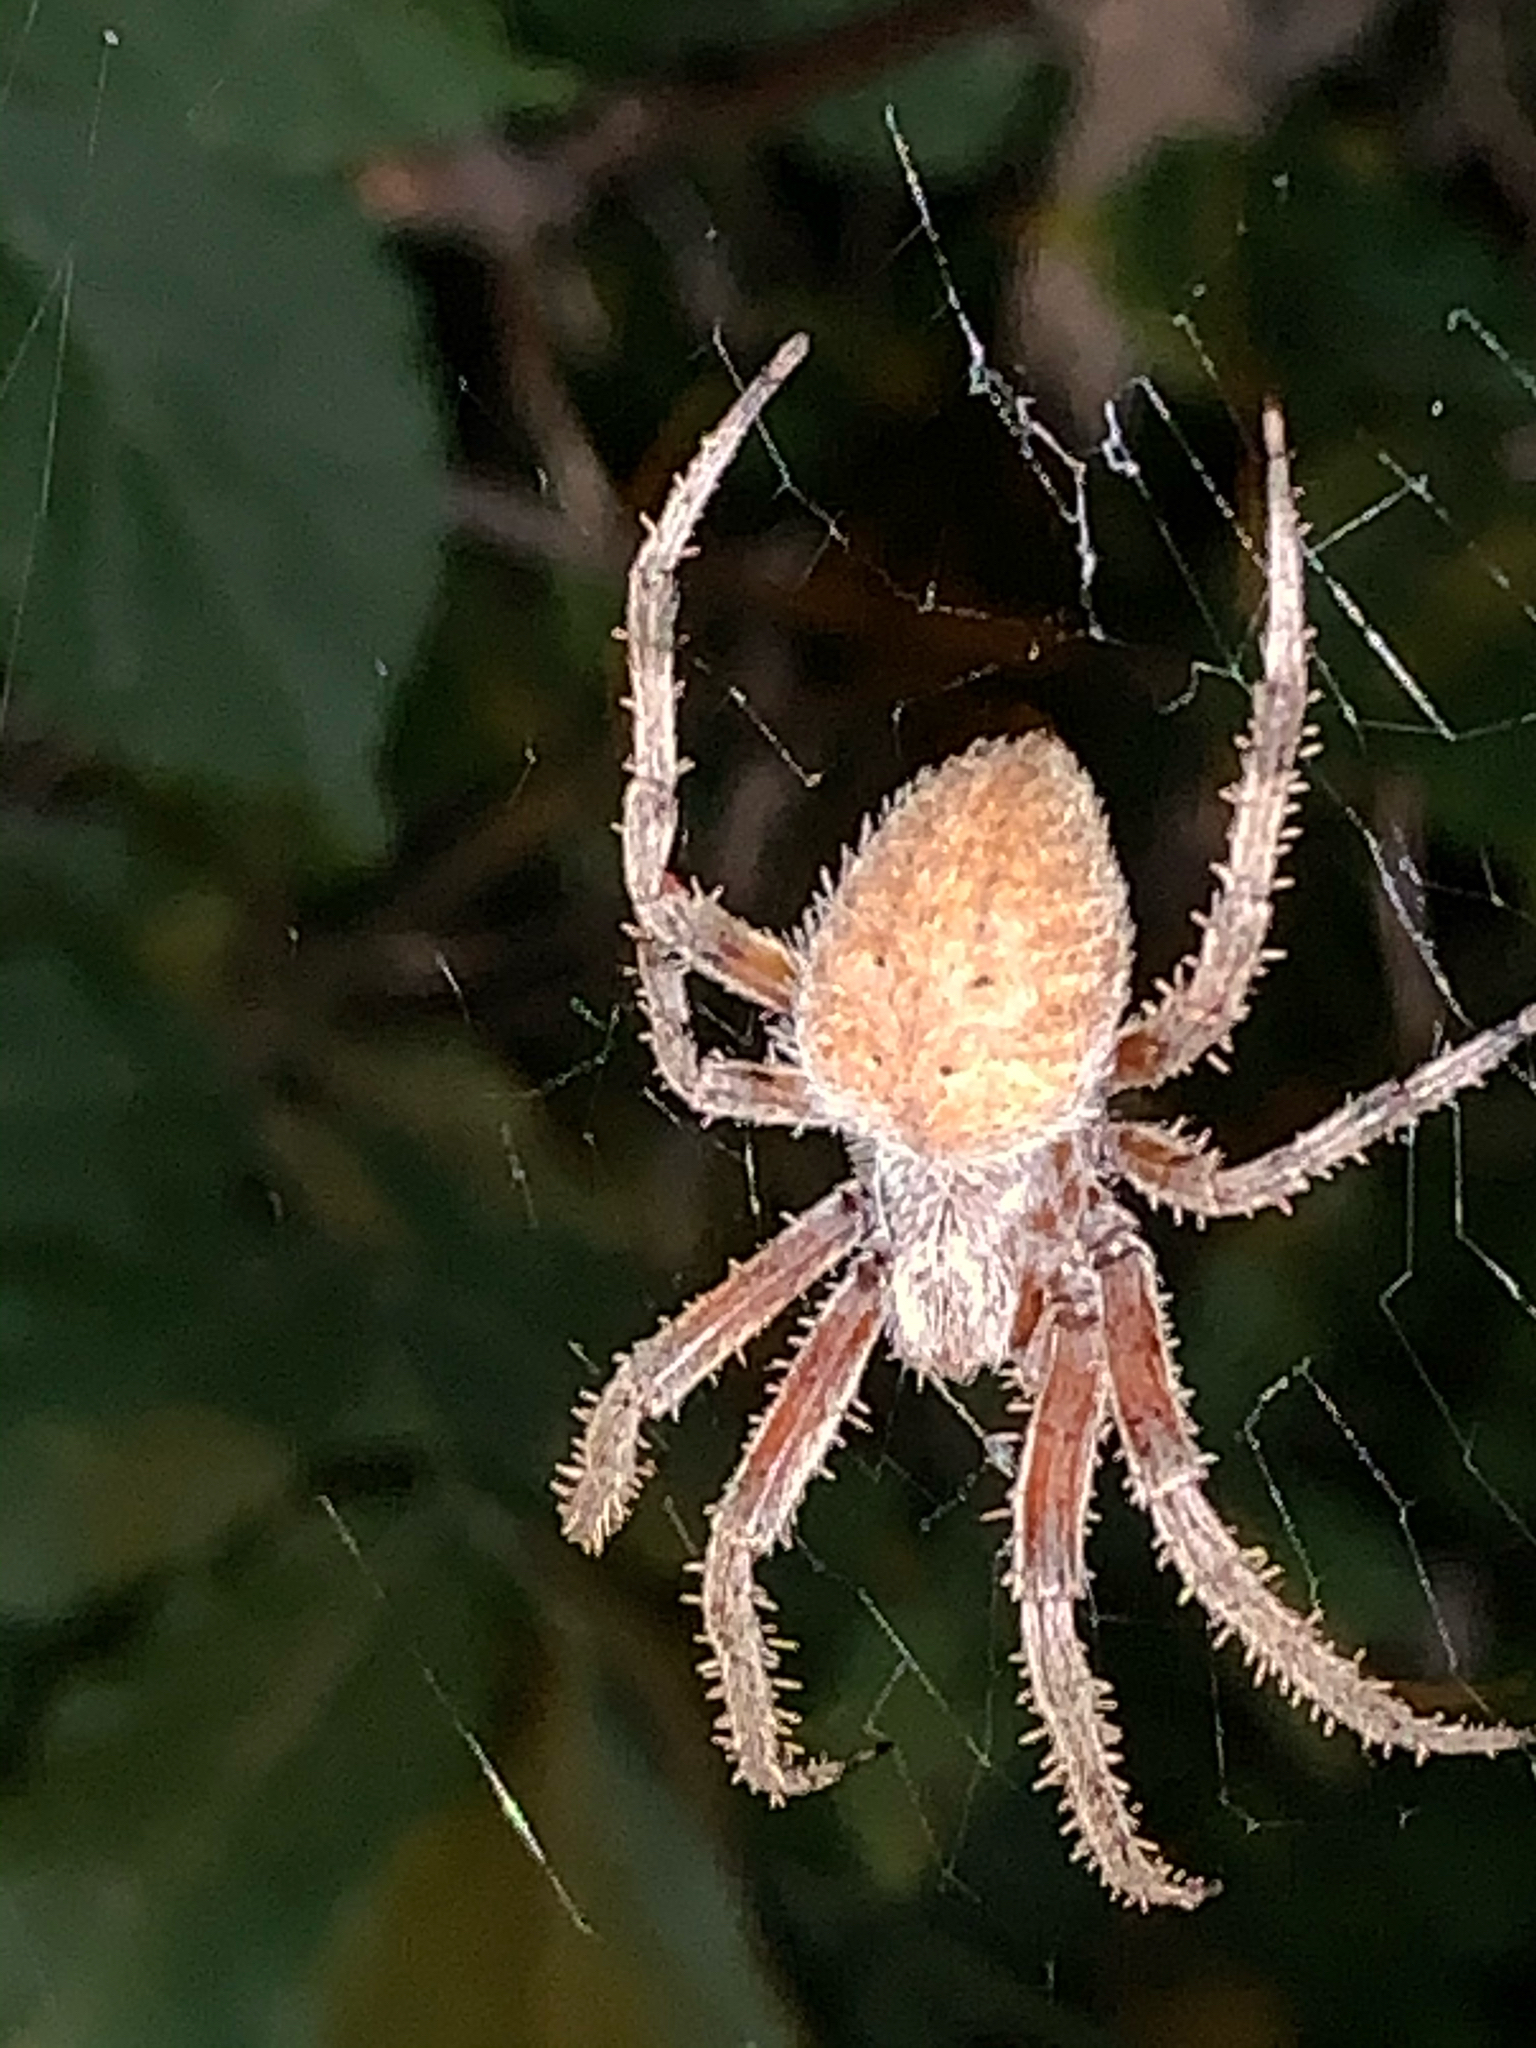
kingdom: Animalia
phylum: Arthropoda
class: Arachnida
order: Araneae
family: Araneidae
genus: Neoscona
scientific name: Neoscona crucifera
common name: Spotted orbweaver
